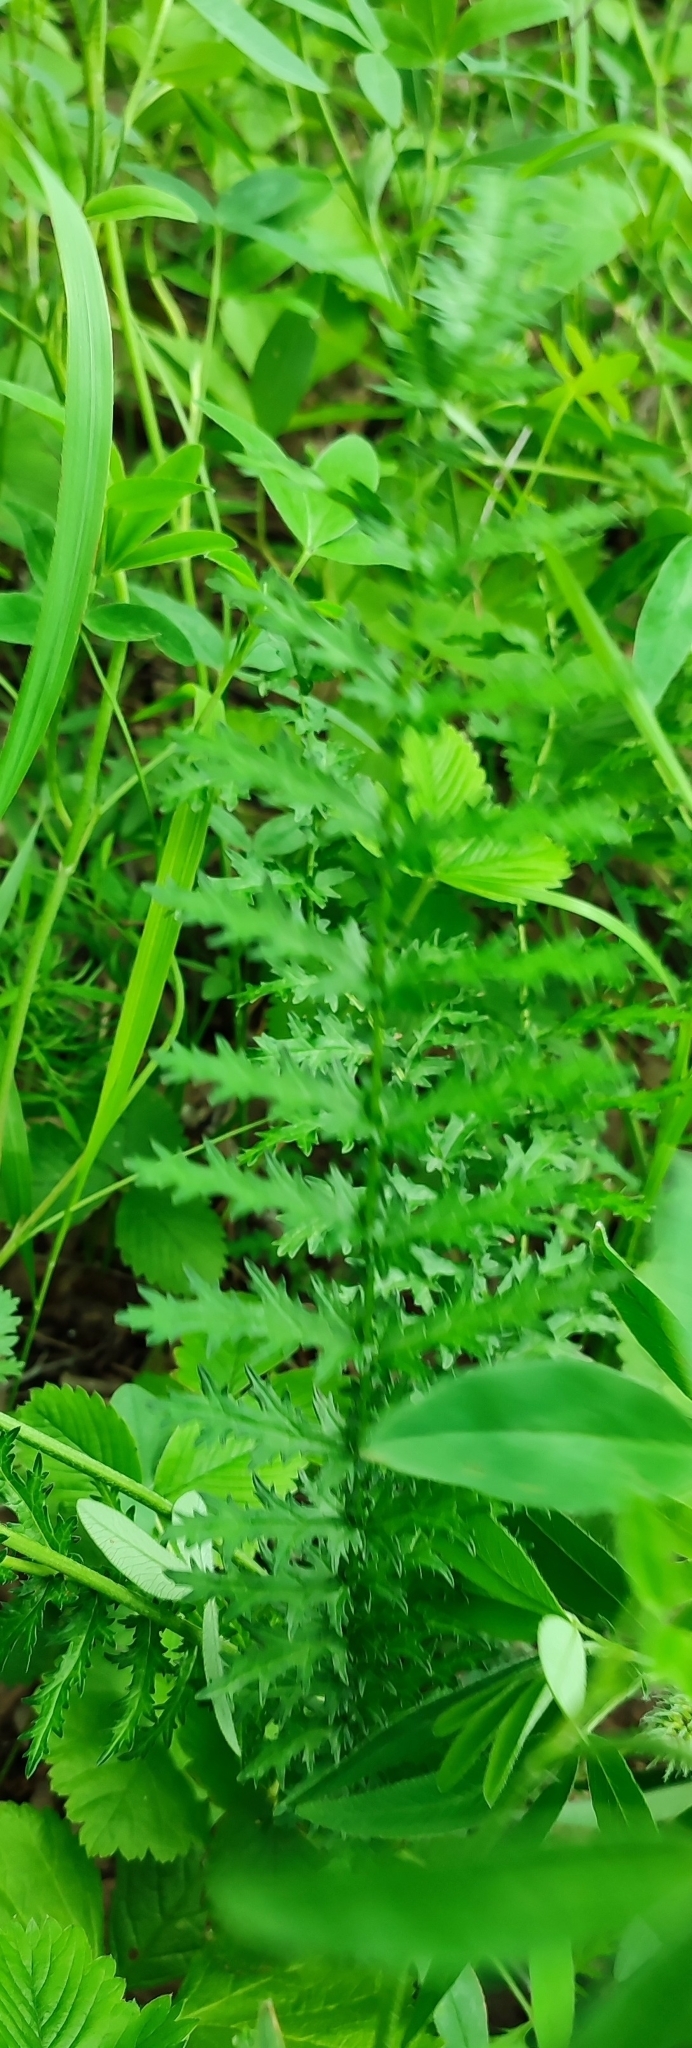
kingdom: Plantae
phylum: Tracheophyta
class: Magnoliopsida
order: Rosales
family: Rosaceae
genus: Filipendula
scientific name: Filipendula vulgaris
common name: Dropwort
